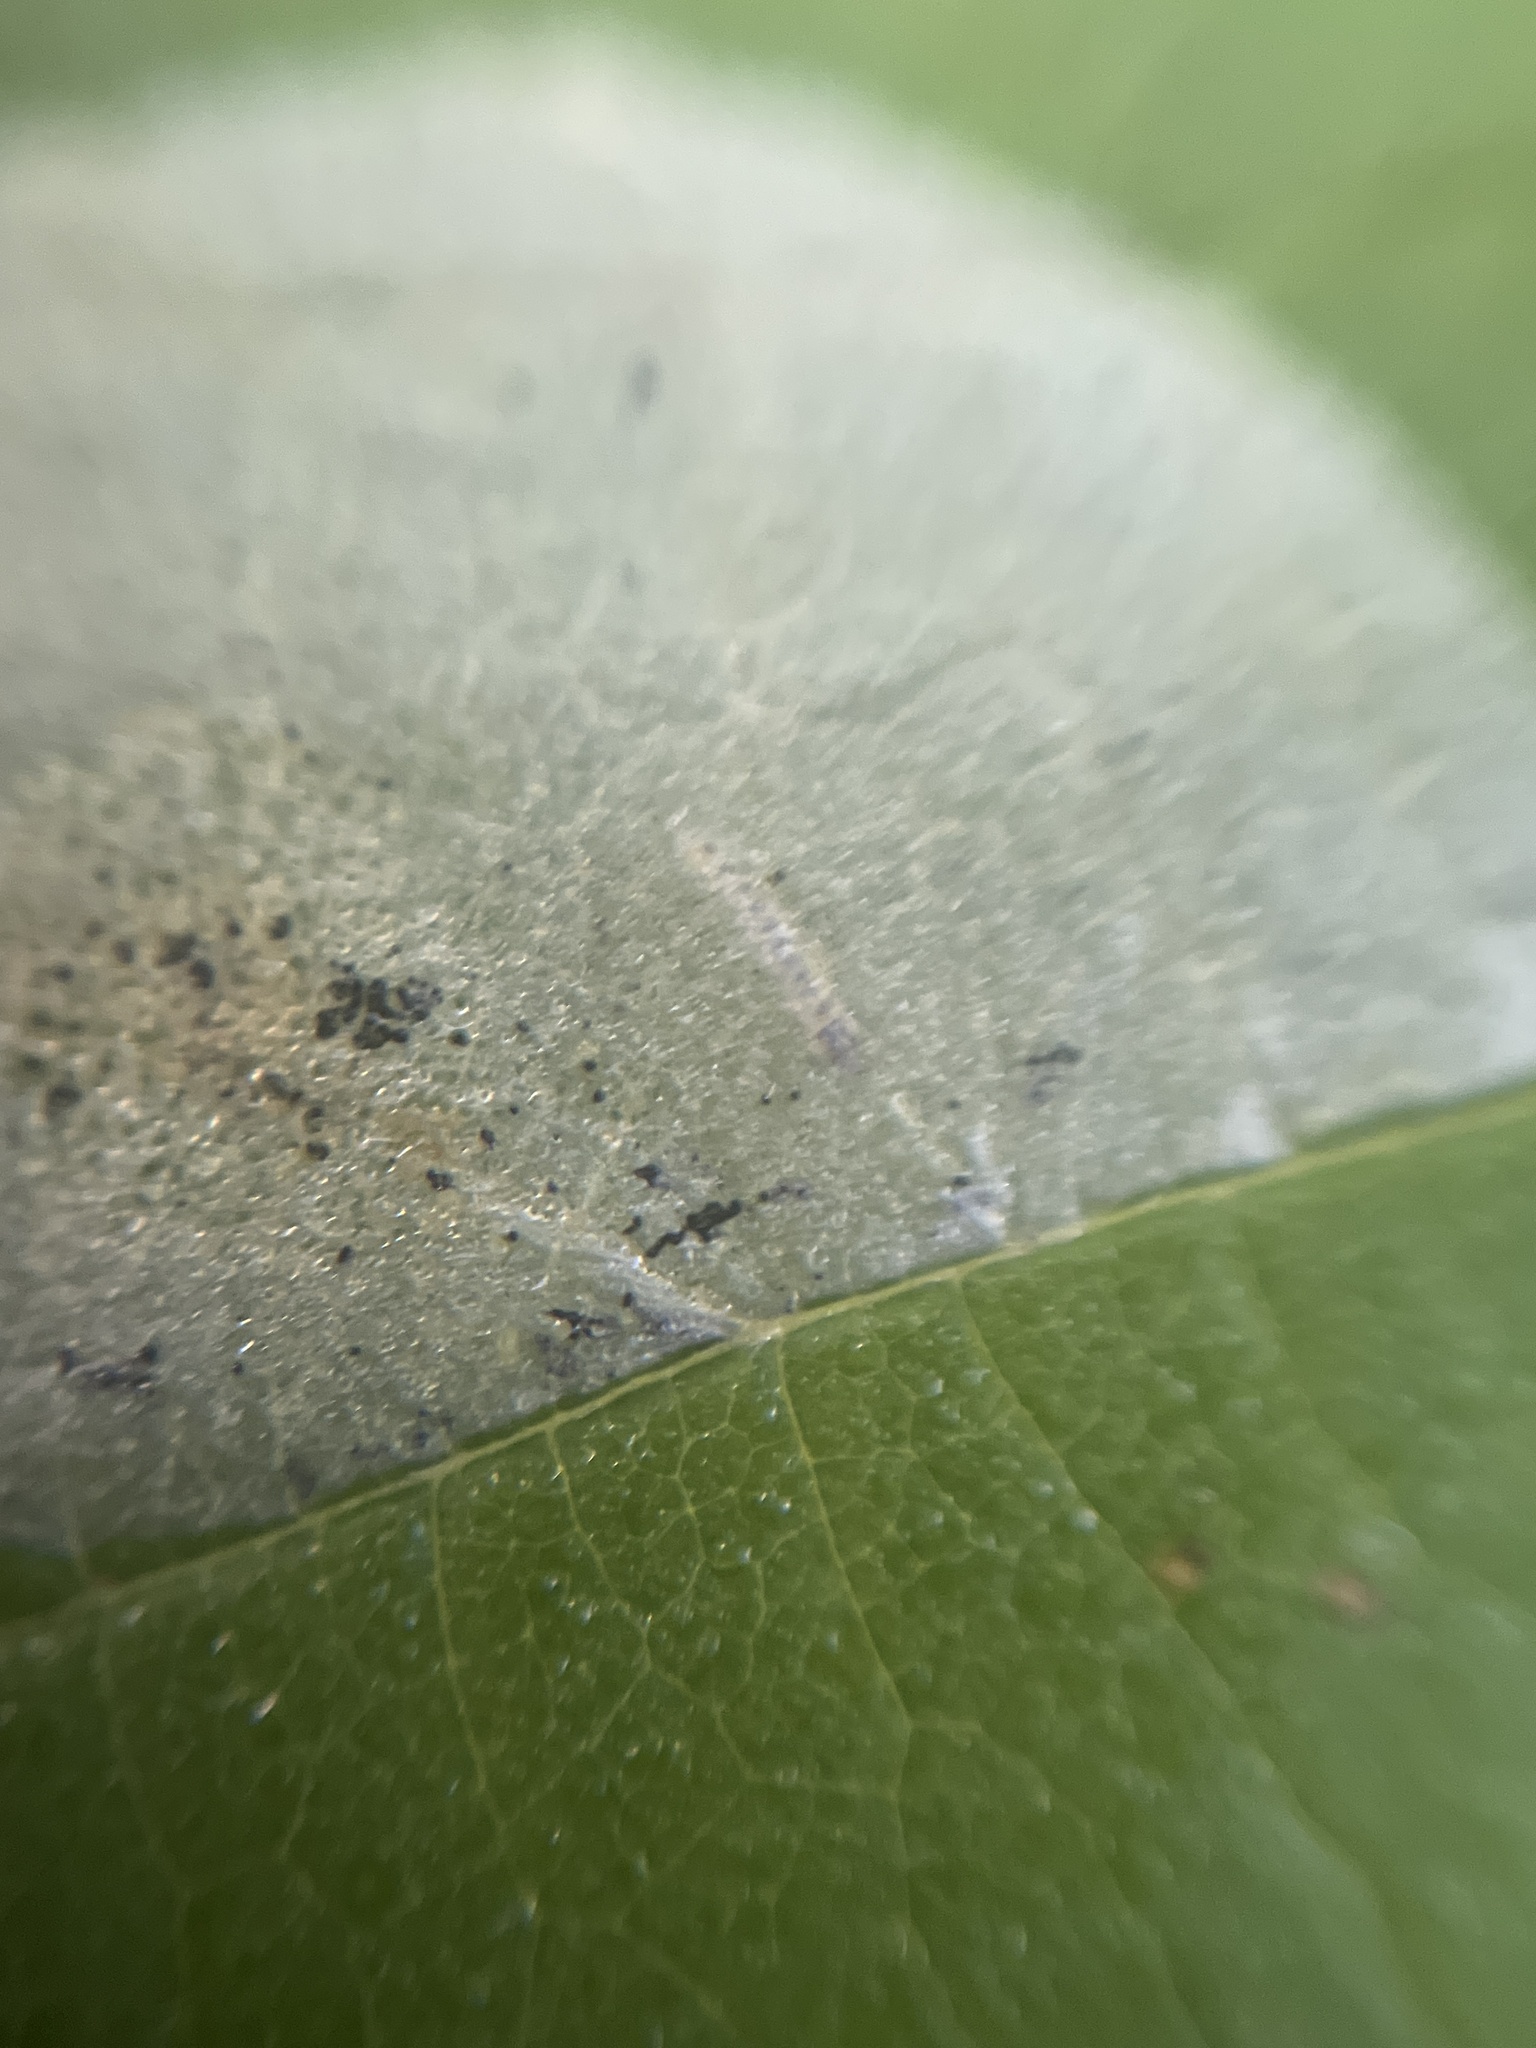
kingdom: Animalia
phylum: Arthropoda
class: Insecta
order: Lepidoptera
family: Gracillariidae
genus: Phyllonorycter
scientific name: Phyllonorycter coryli
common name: Nut-leaf blister moth
